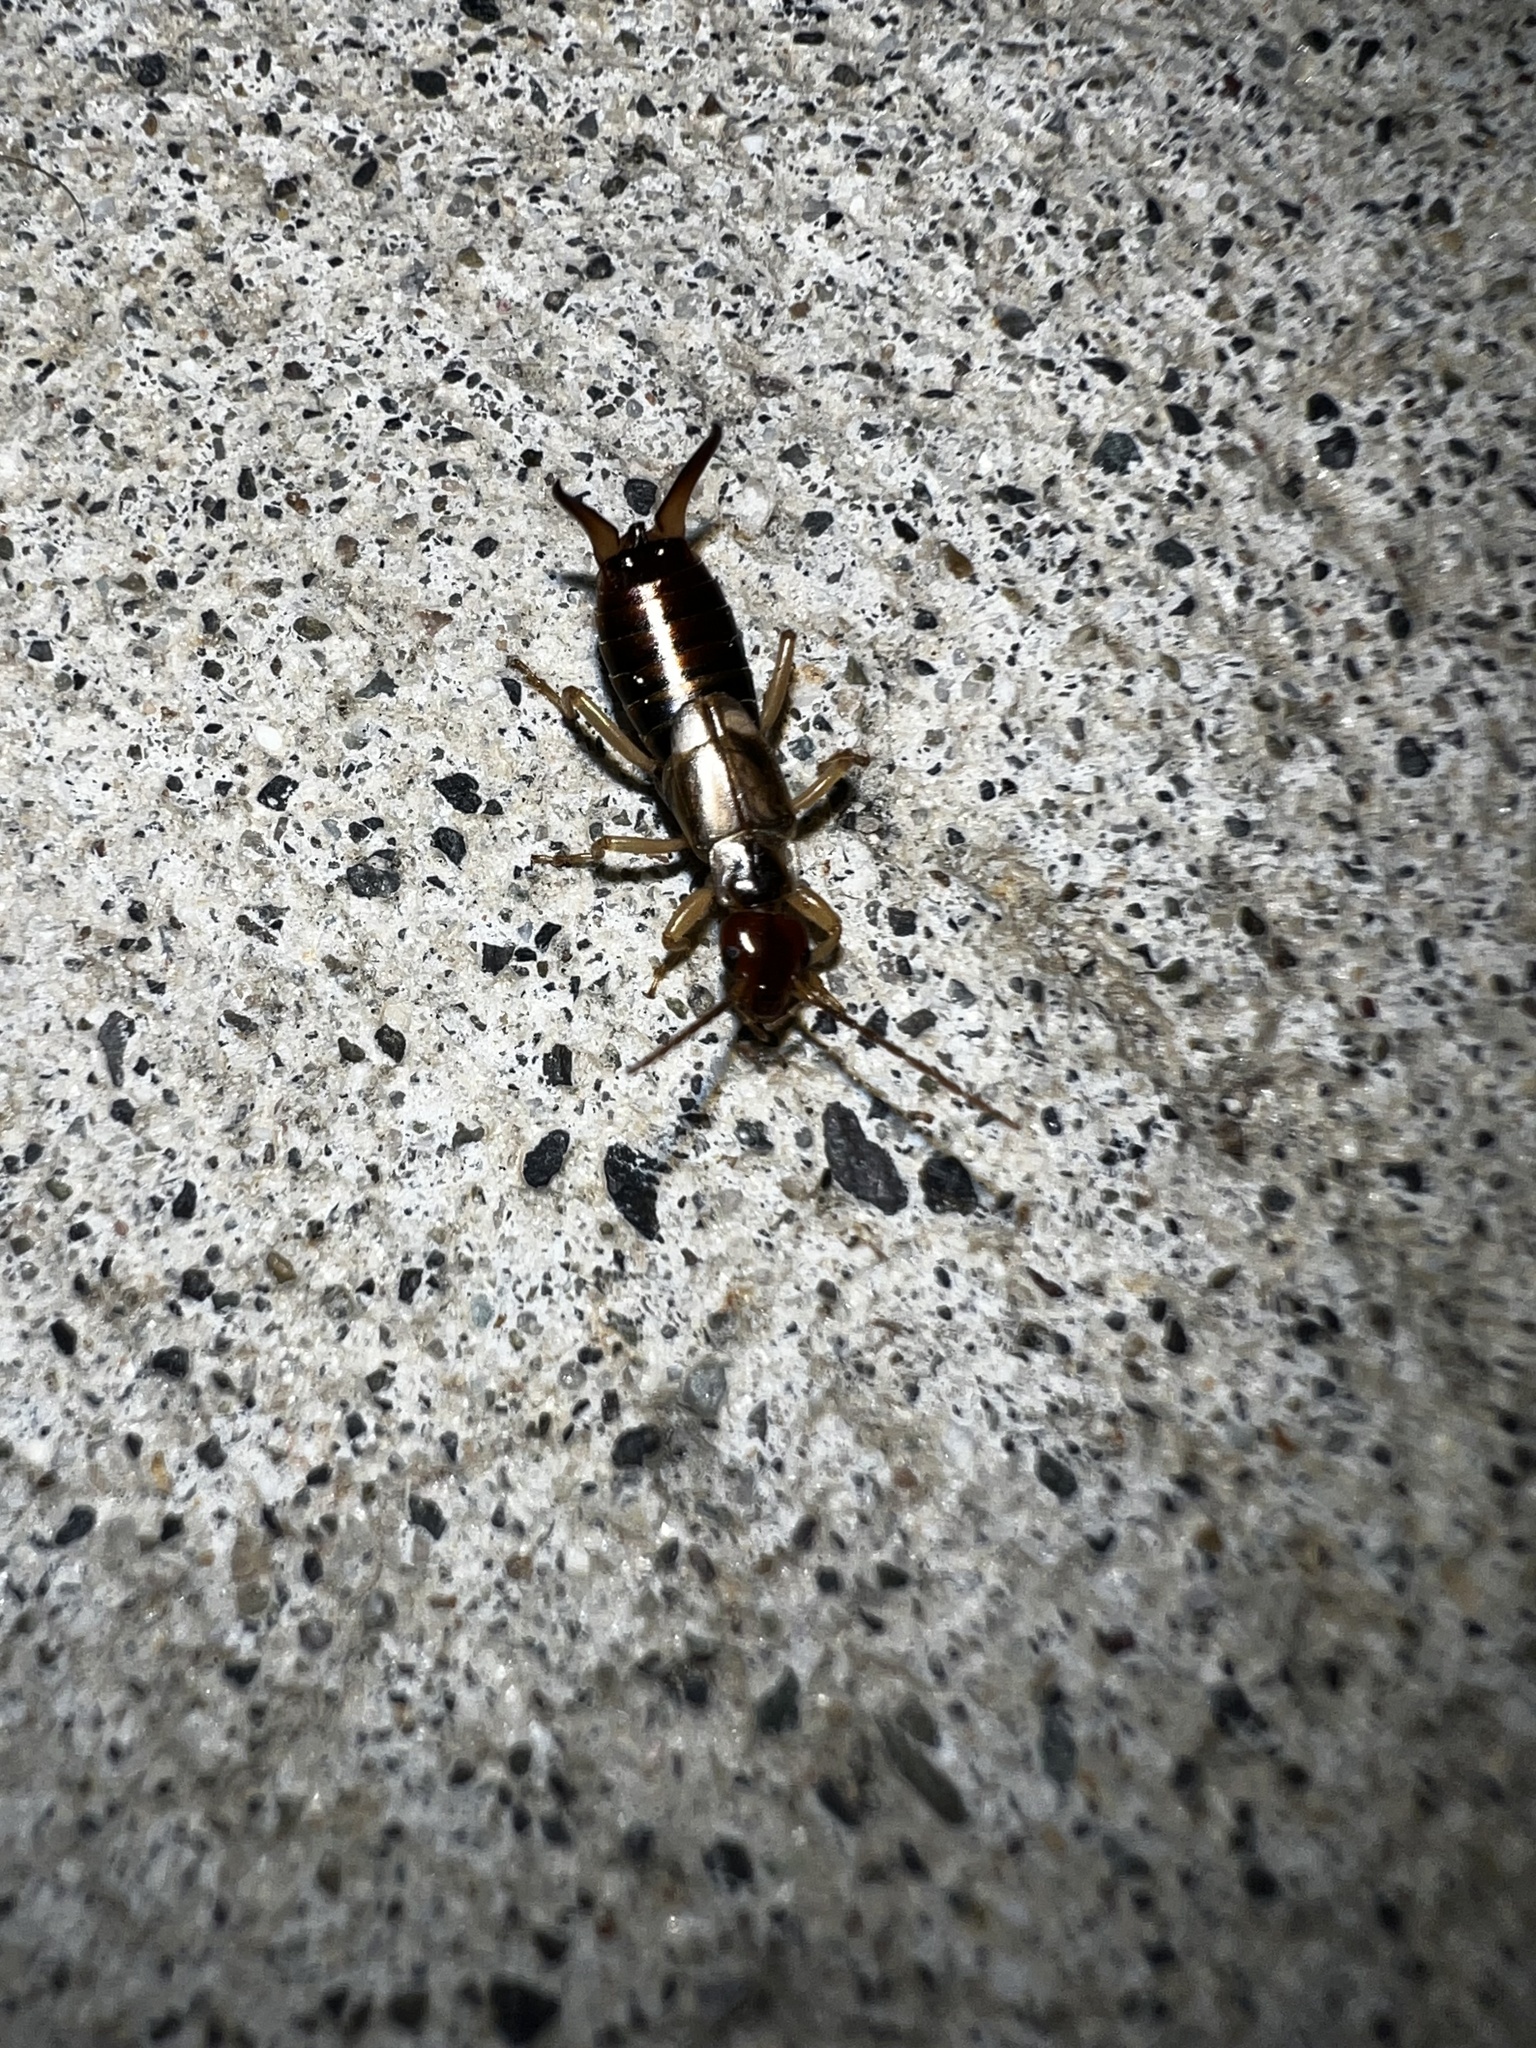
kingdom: Animalia
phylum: Arthropoda
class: Insecta
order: Dermaptera
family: Forficulidae
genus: Forficula
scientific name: Forficula dentata
